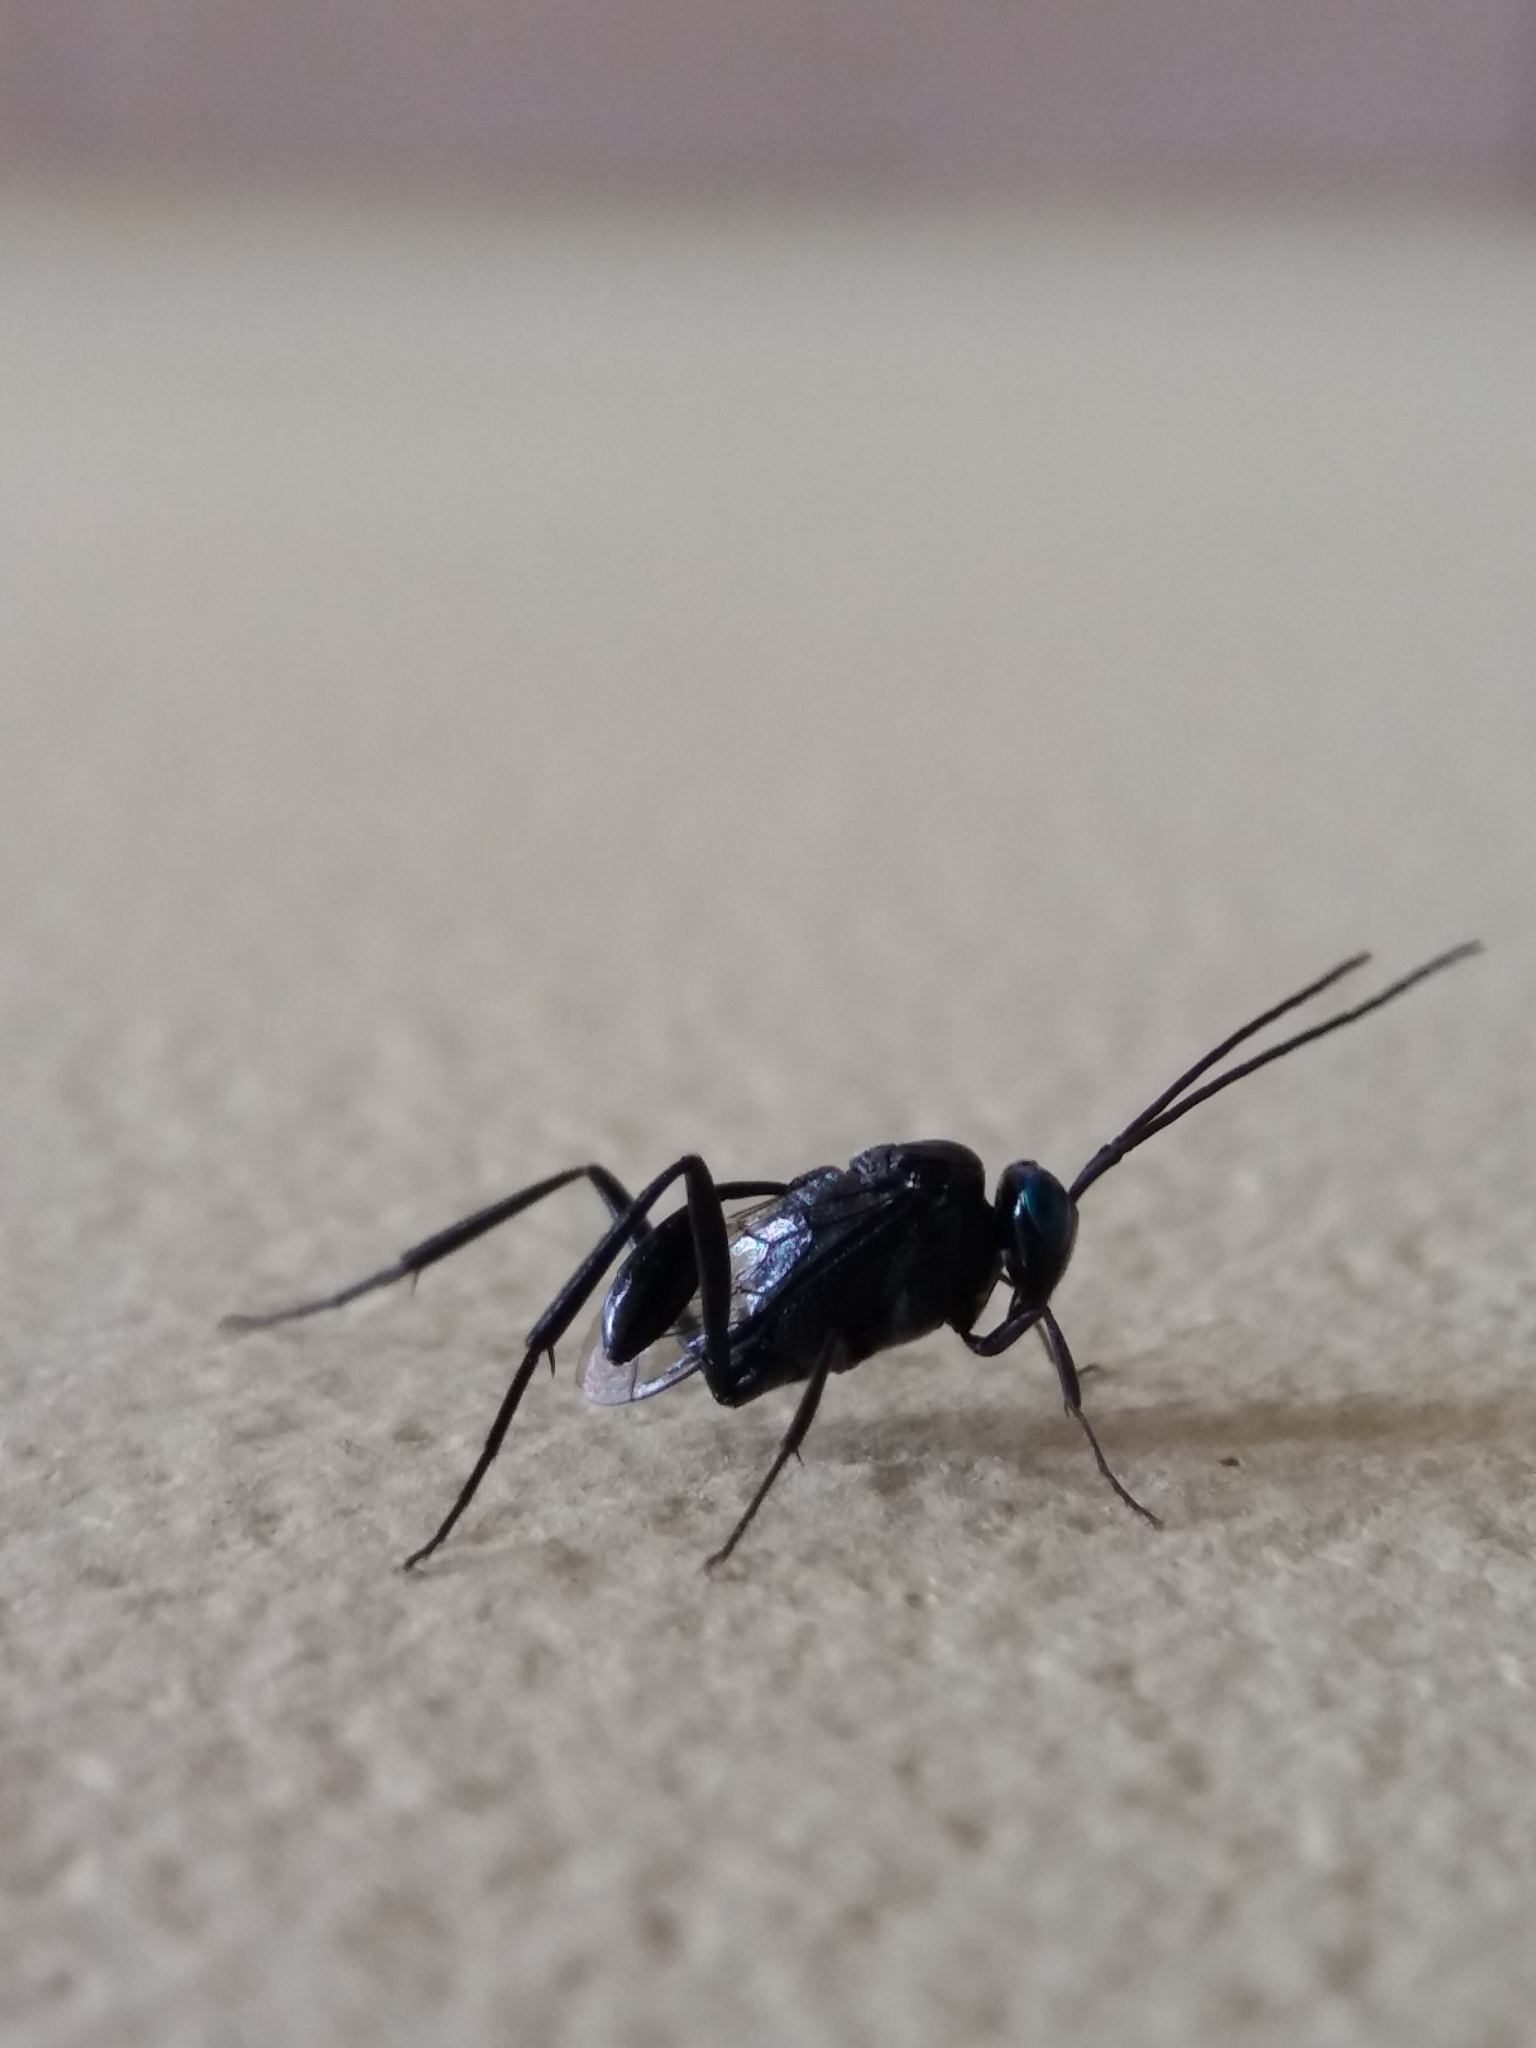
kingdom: Animalia
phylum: Arthropoda
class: Insecta
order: Hymenoptera
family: Evaniidae
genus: Evania
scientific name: Evania appendigaster
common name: Ensign wasp
